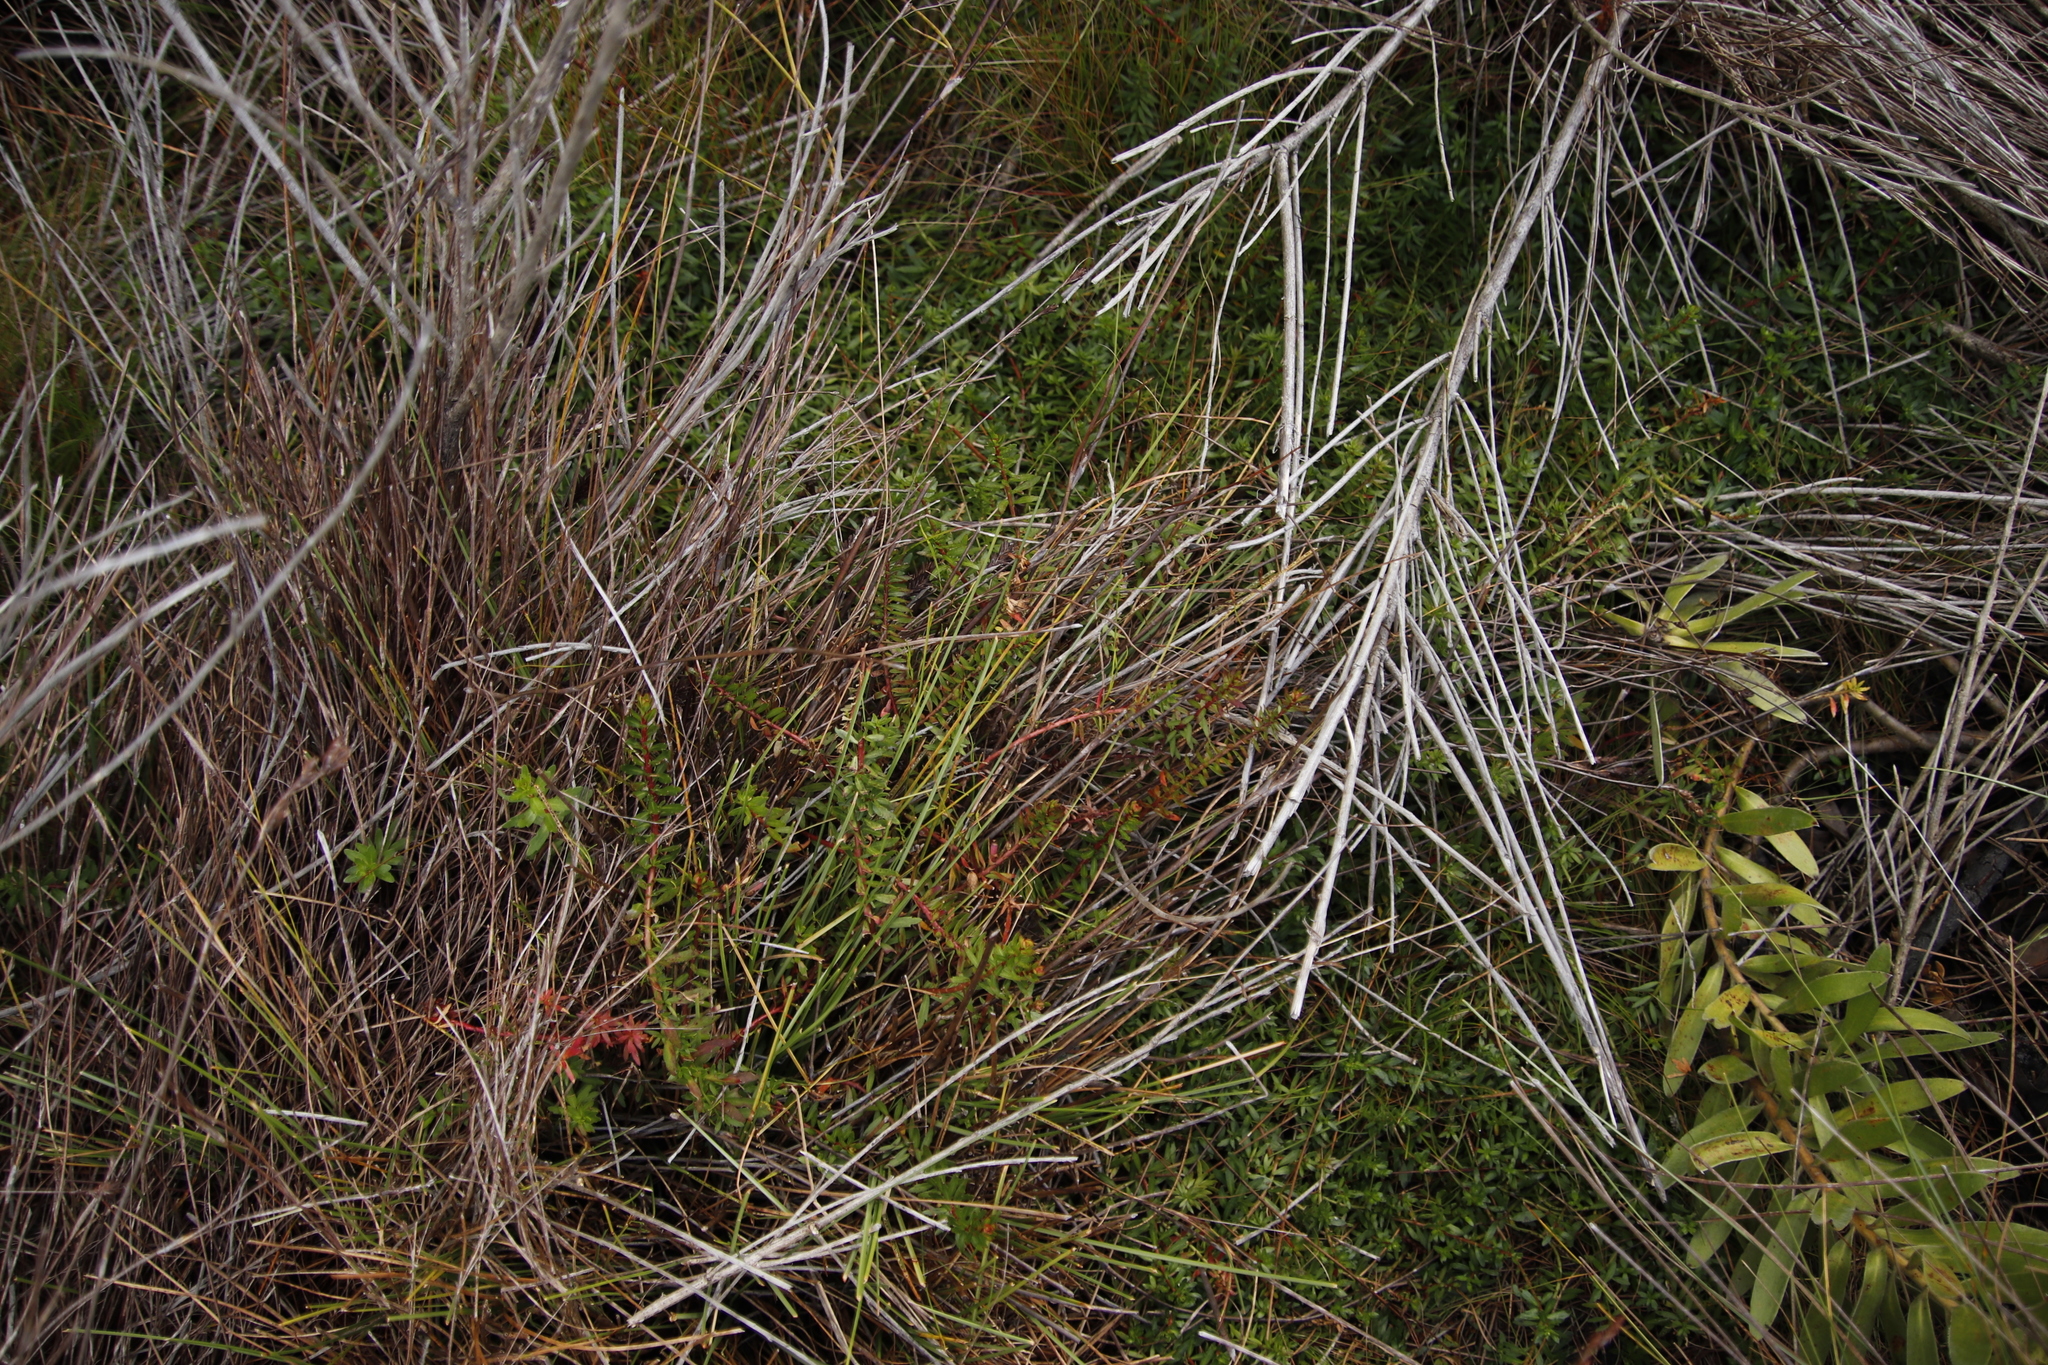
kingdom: Plantae
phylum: Tracheophyta
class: Magnoliopsida
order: Saxifragales
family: Haloragaceae
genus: Laurembergia
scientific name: Laurembergia repens
